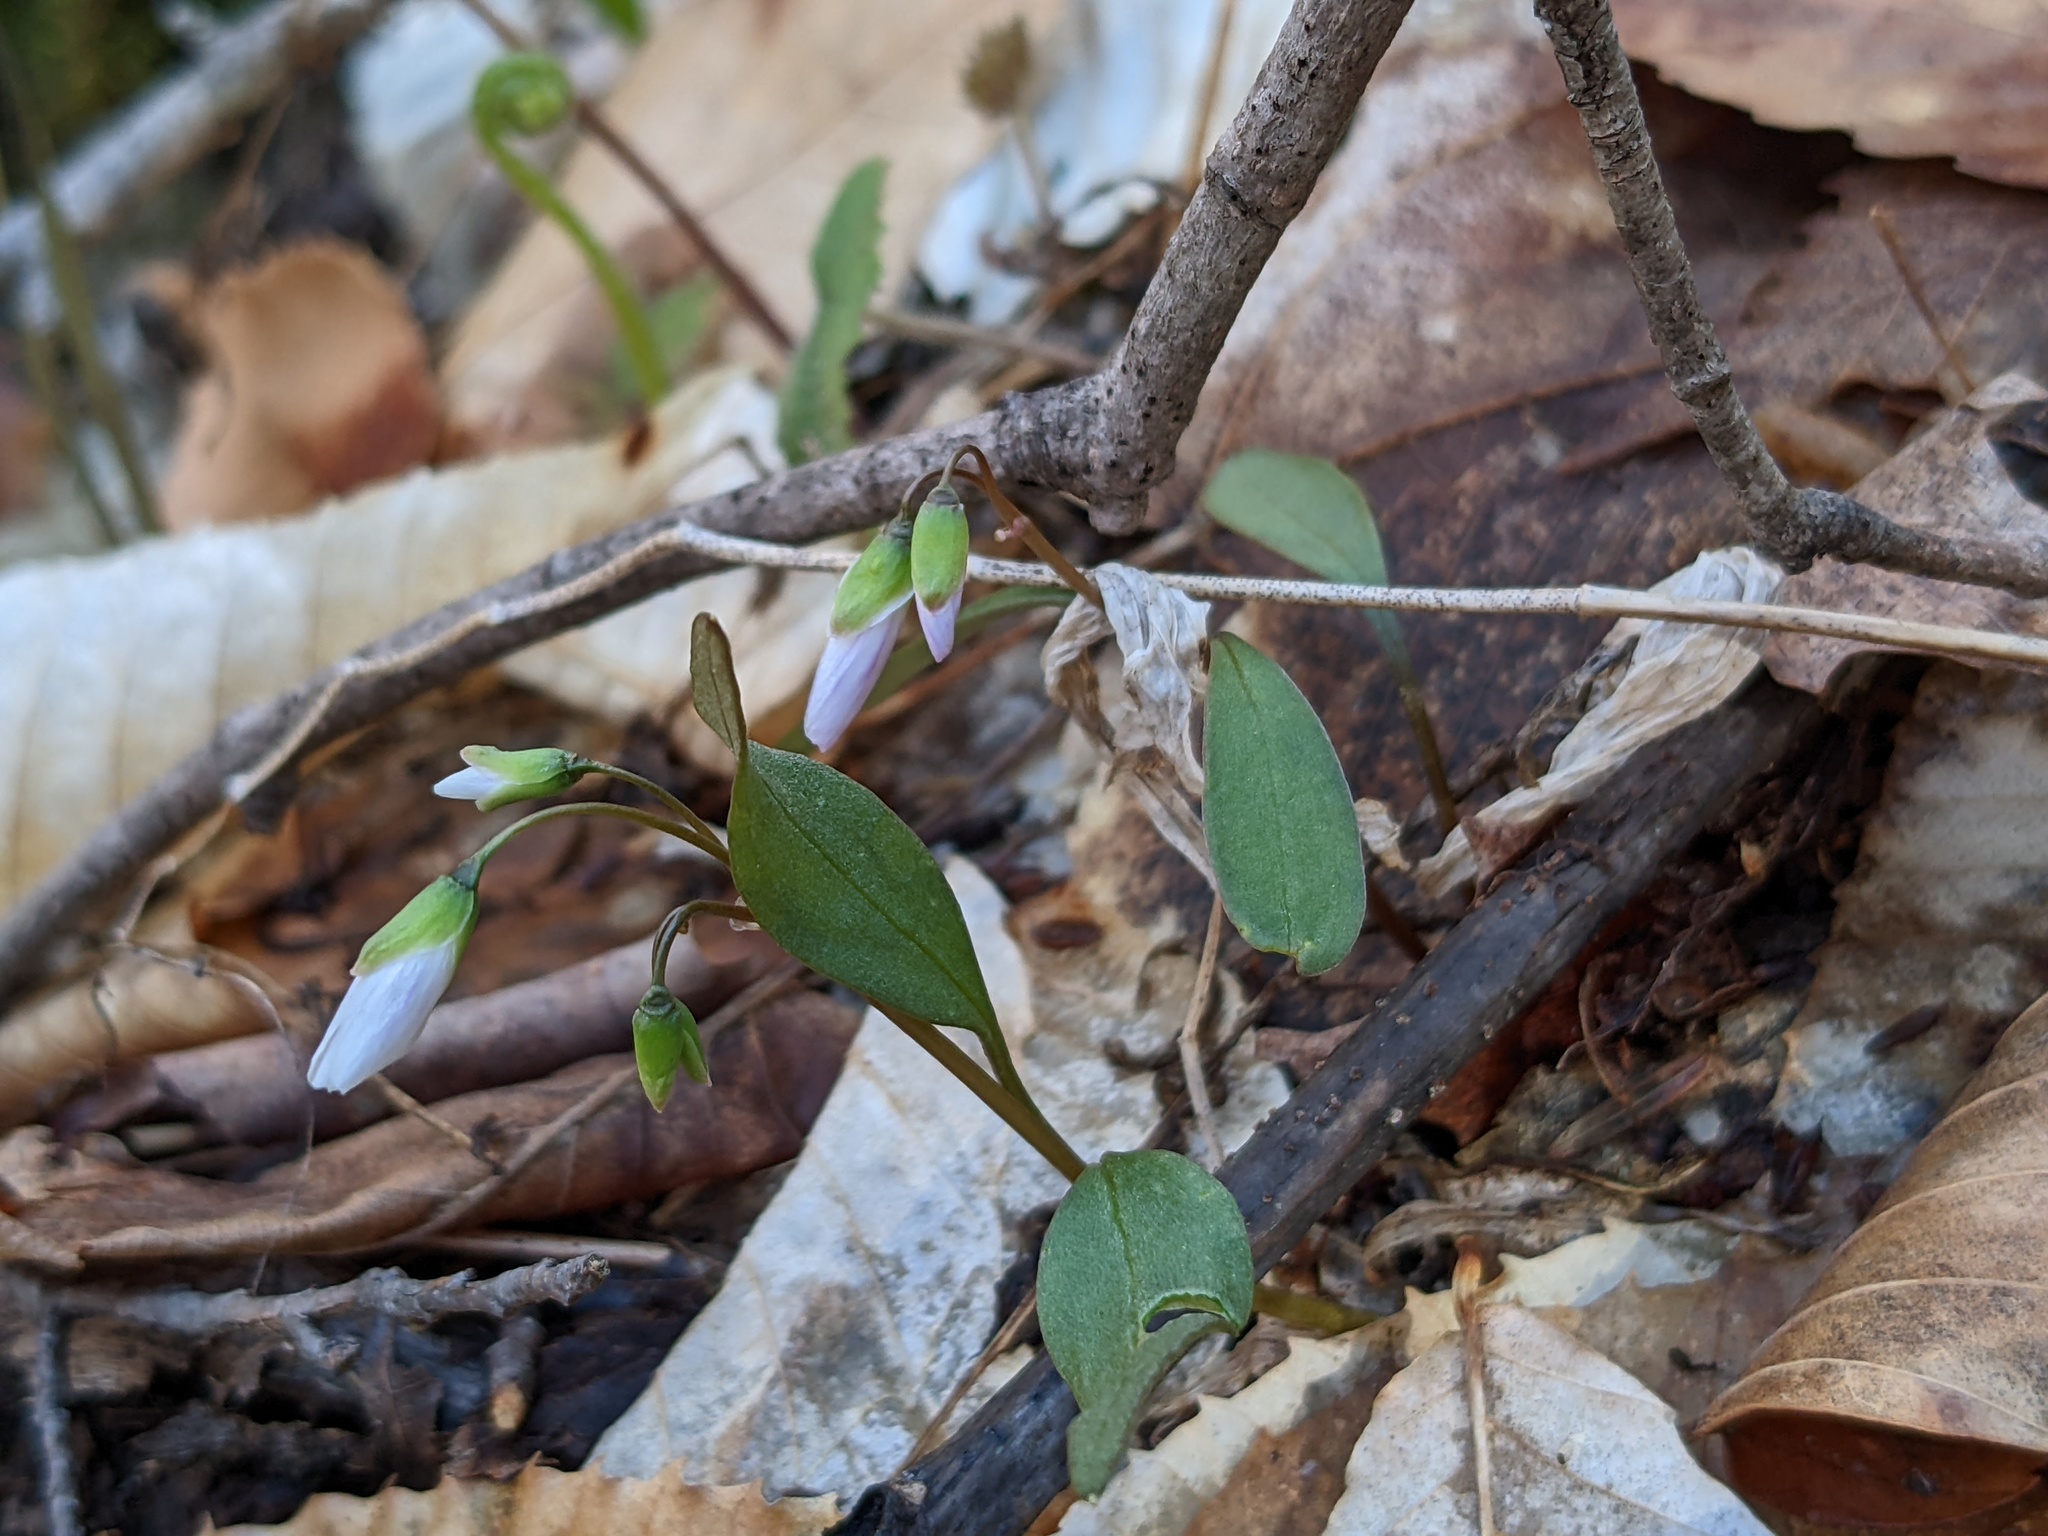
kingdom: Plantae
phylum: Tracheophyta
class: Magnoliopsida
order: Caryophyllales
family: Montiaceae
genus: Claytonia
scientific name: Claytonia caroliniana
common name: Carolina spring beauty
